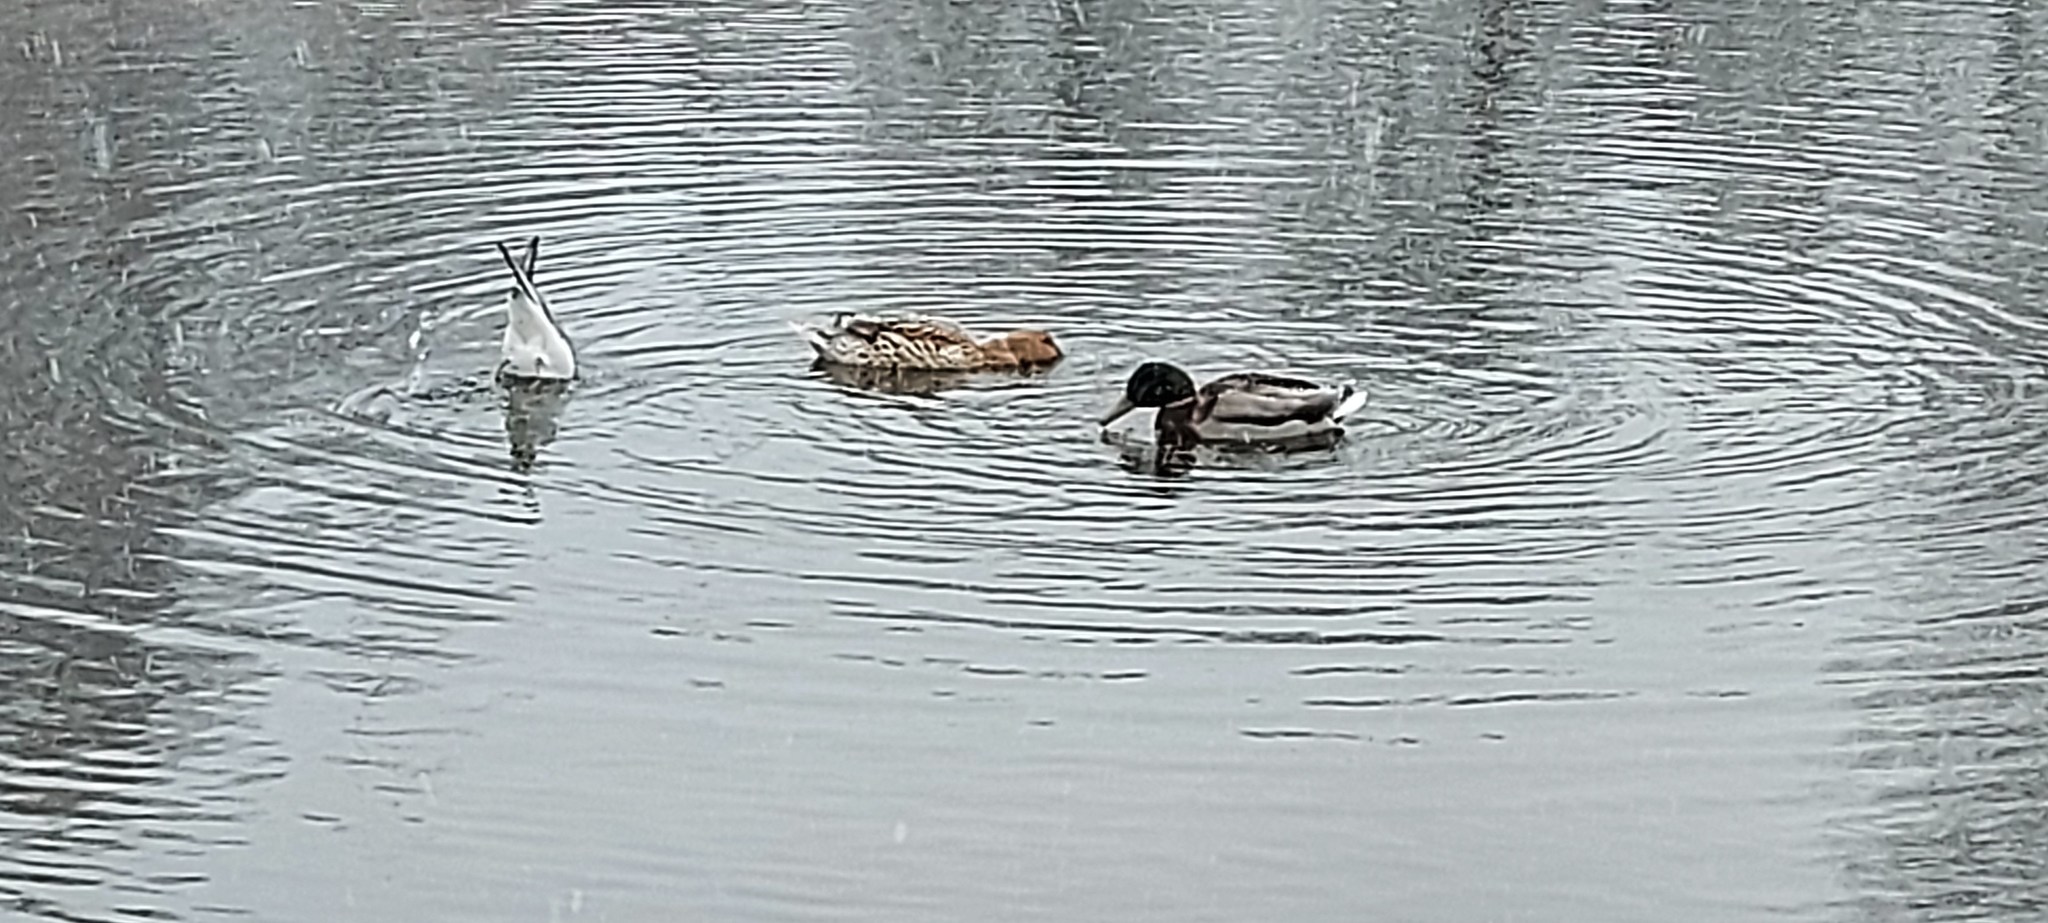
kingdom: Animalia
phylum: Chordata
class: Aves
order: Anseriformes
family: Anatidae
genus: Anas
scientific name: Anas platyrhynchos
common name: Mallard
